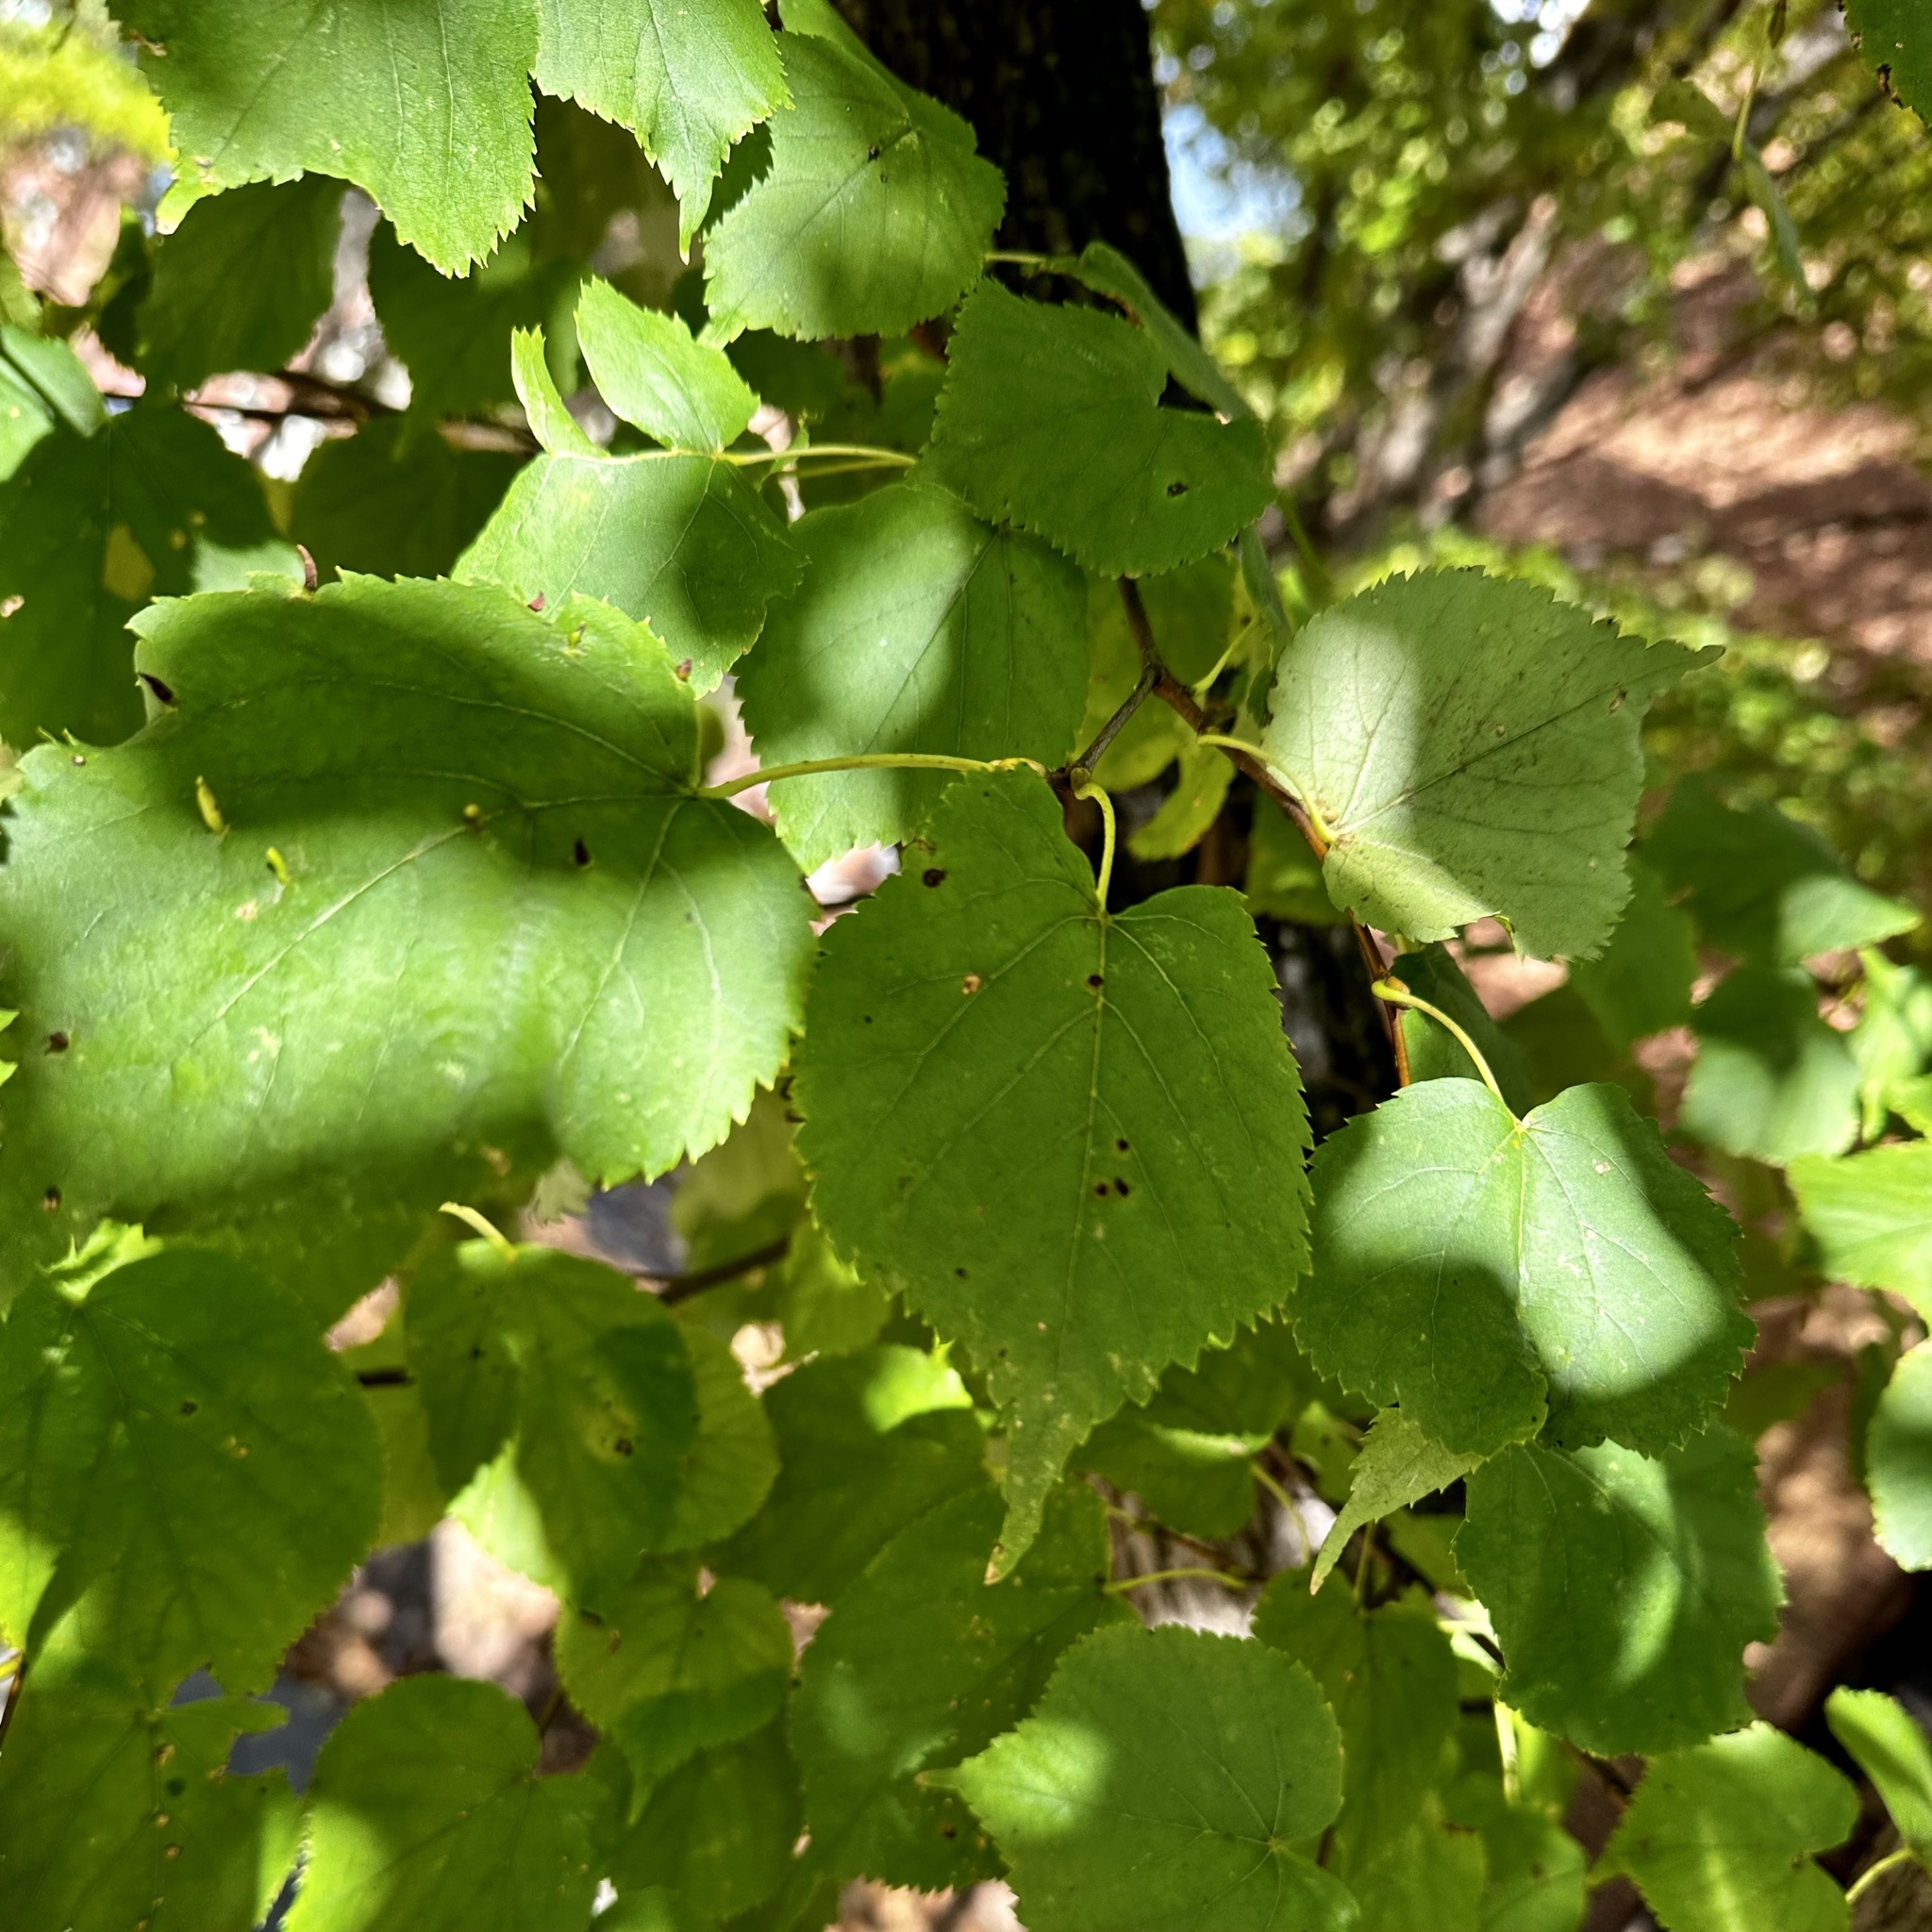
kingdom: Animalia
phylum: Arthropoda
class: Arachnida
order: Trombidiformes
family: Eriophyidae
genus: Eriophyes
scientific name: Eriophyes tiliae
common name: Red nail gall mite
